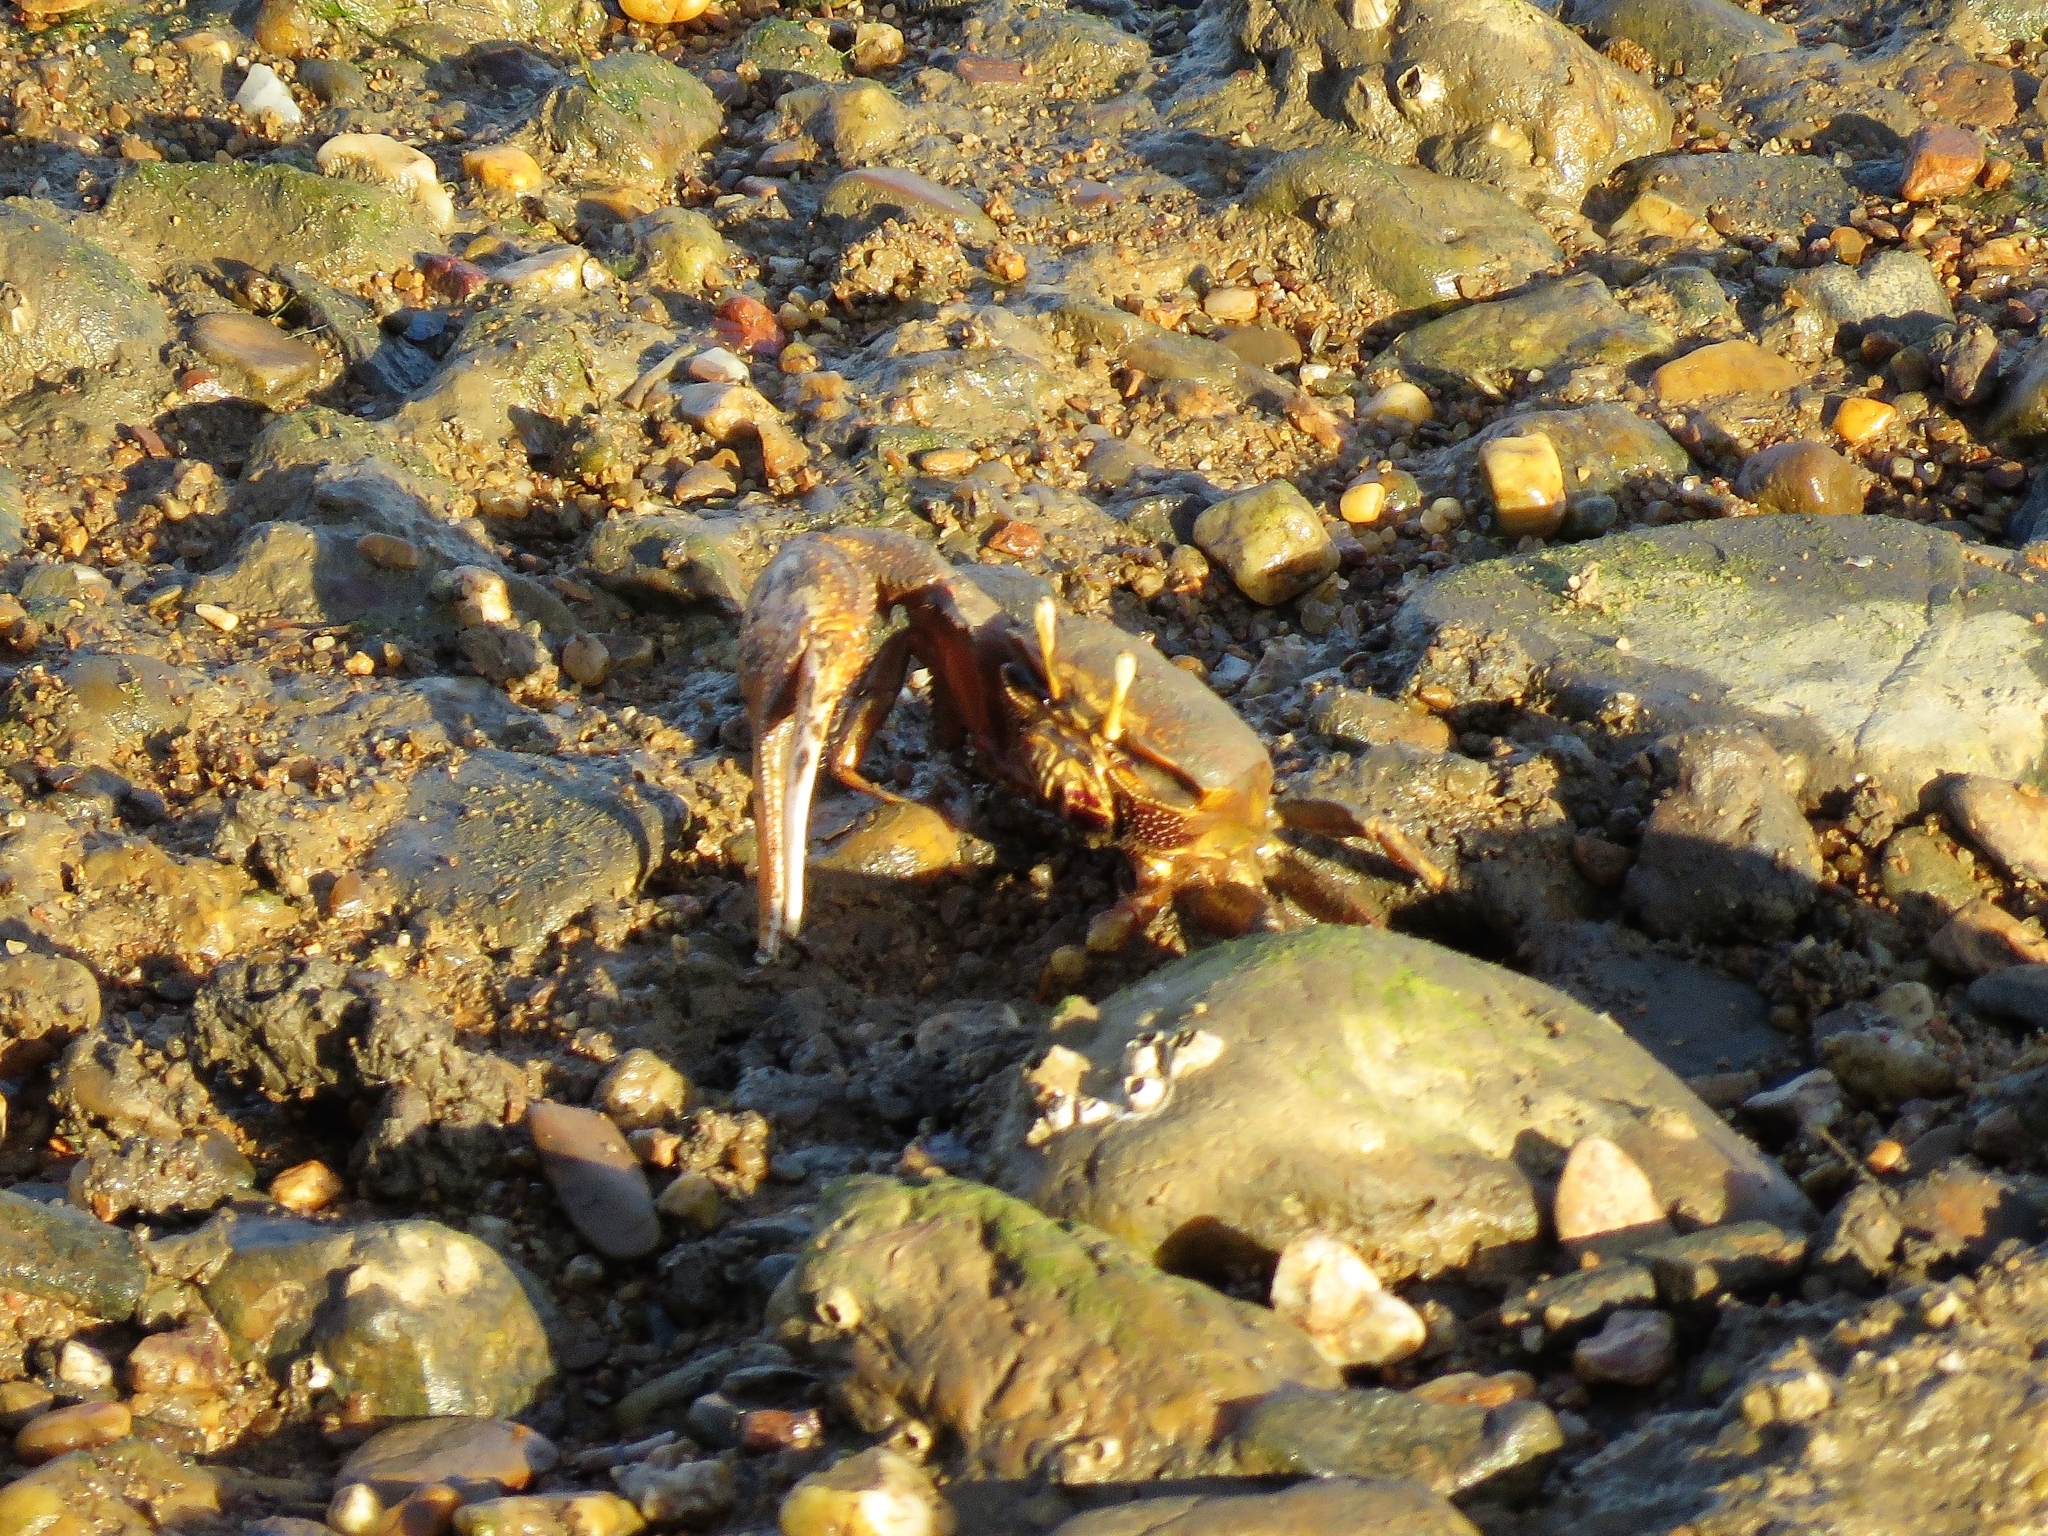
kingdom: Animalia
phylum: Arthropoda
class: Malacostraca
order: Decapoda
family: Ocypodidae
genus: Afruca
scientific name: Afruca tangeri
